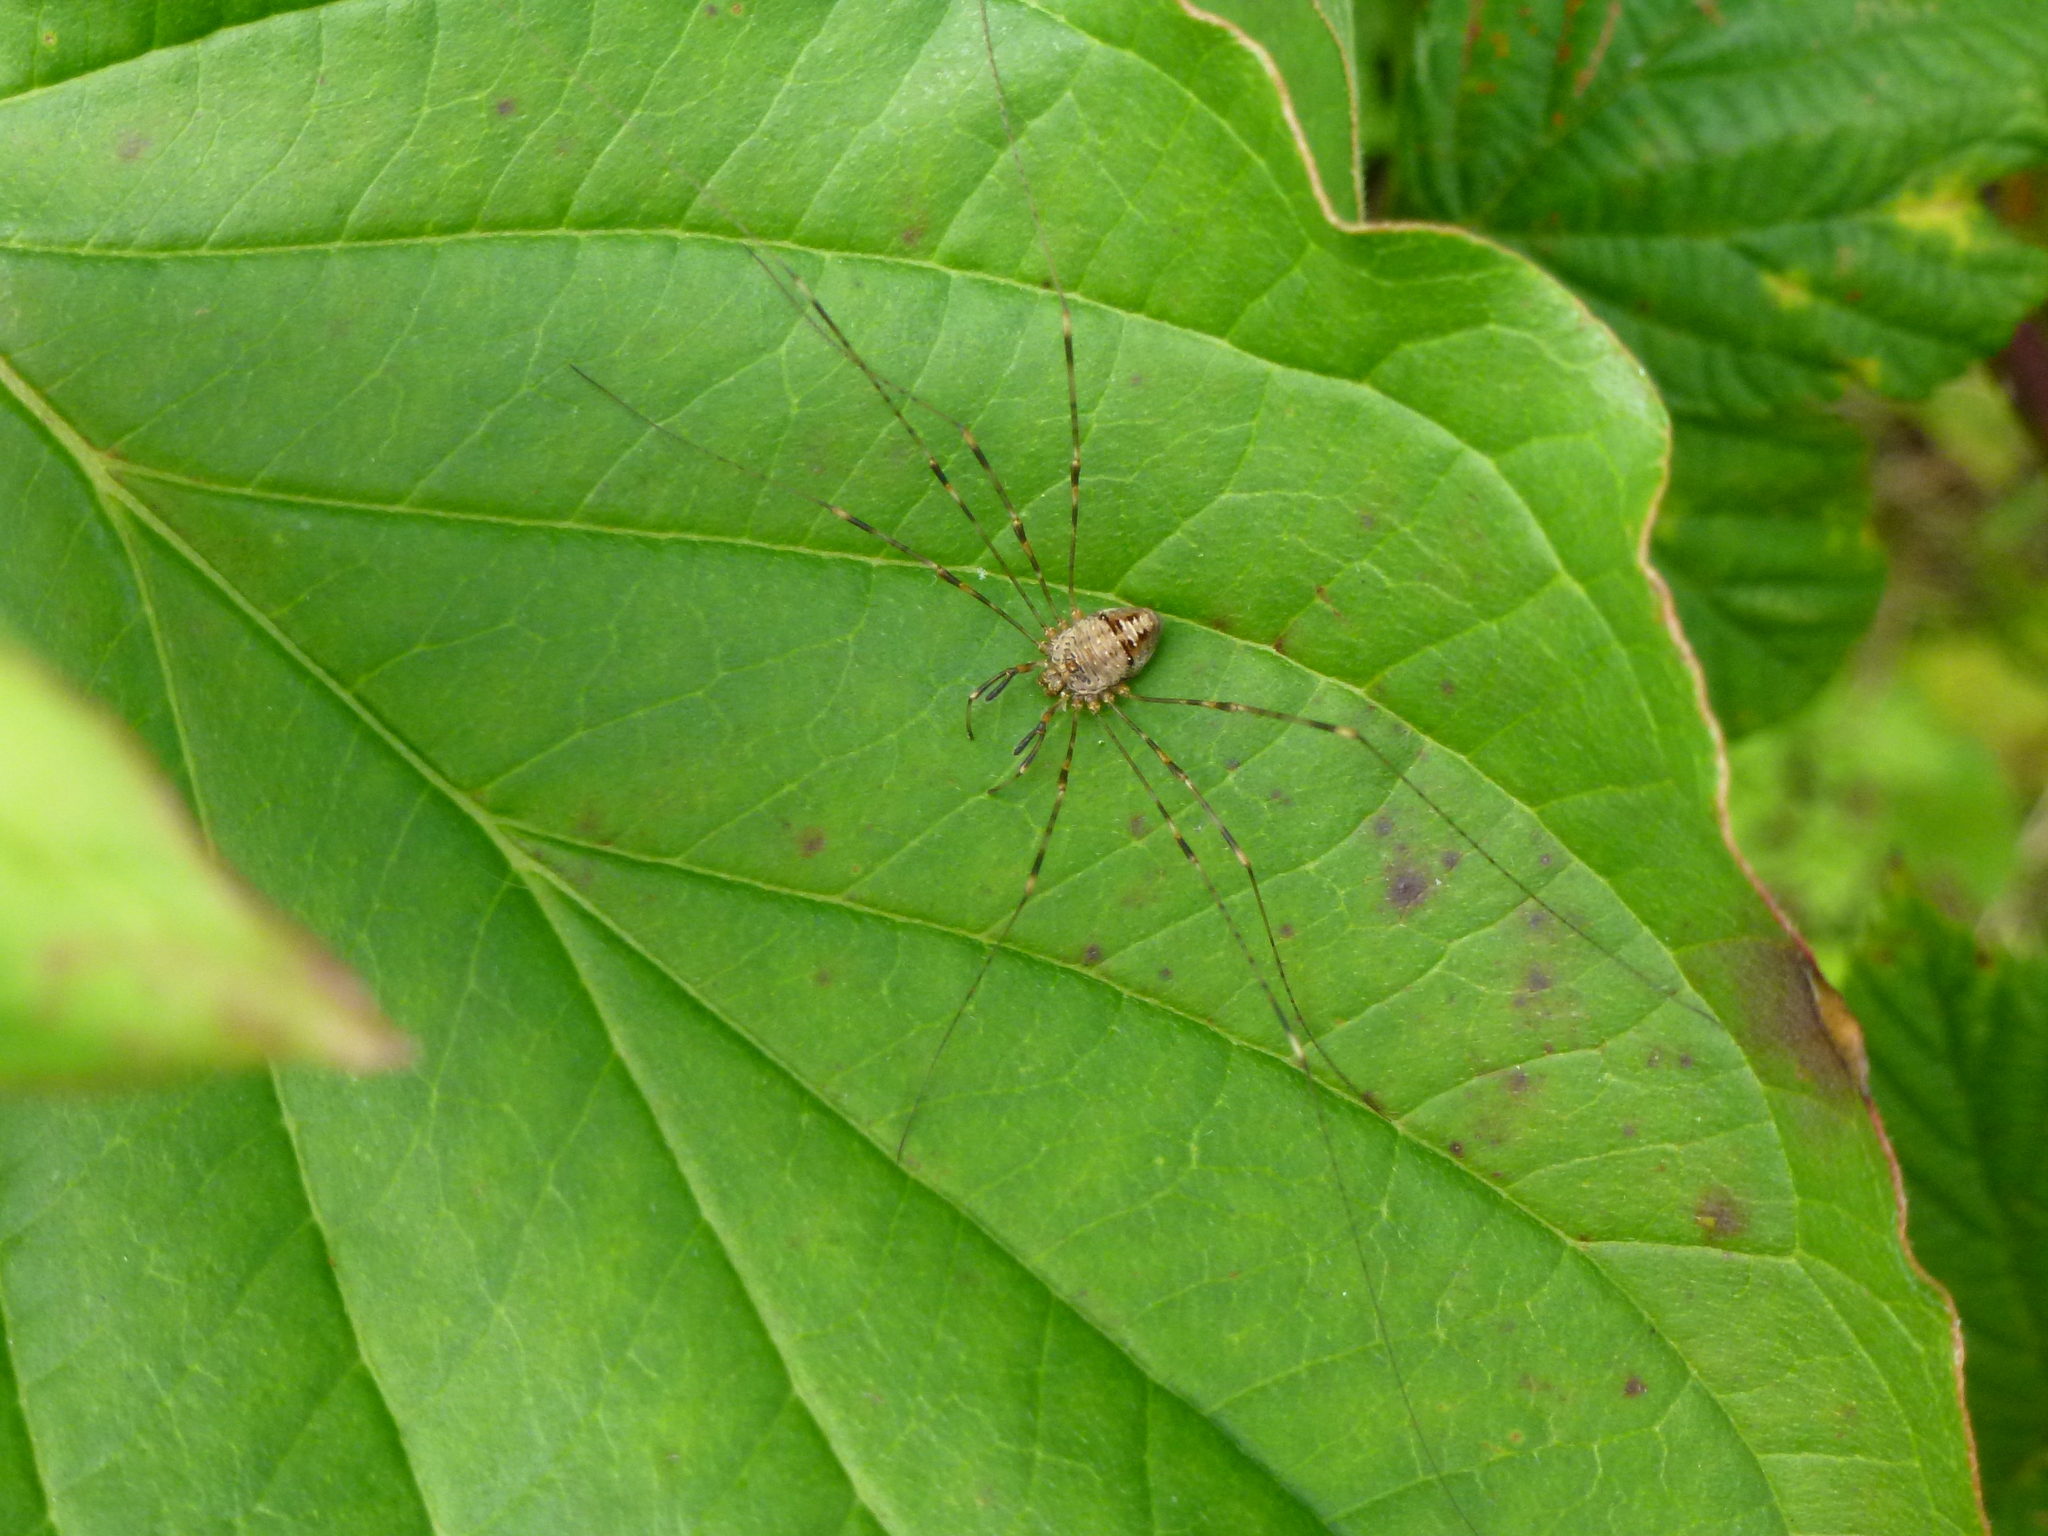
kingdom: Animalia
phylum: Arthropoda
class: Arachnida
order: Opiliones
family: Phalangiidae
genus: Dicranopalpus
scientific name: Dicranopalpus ramosus
